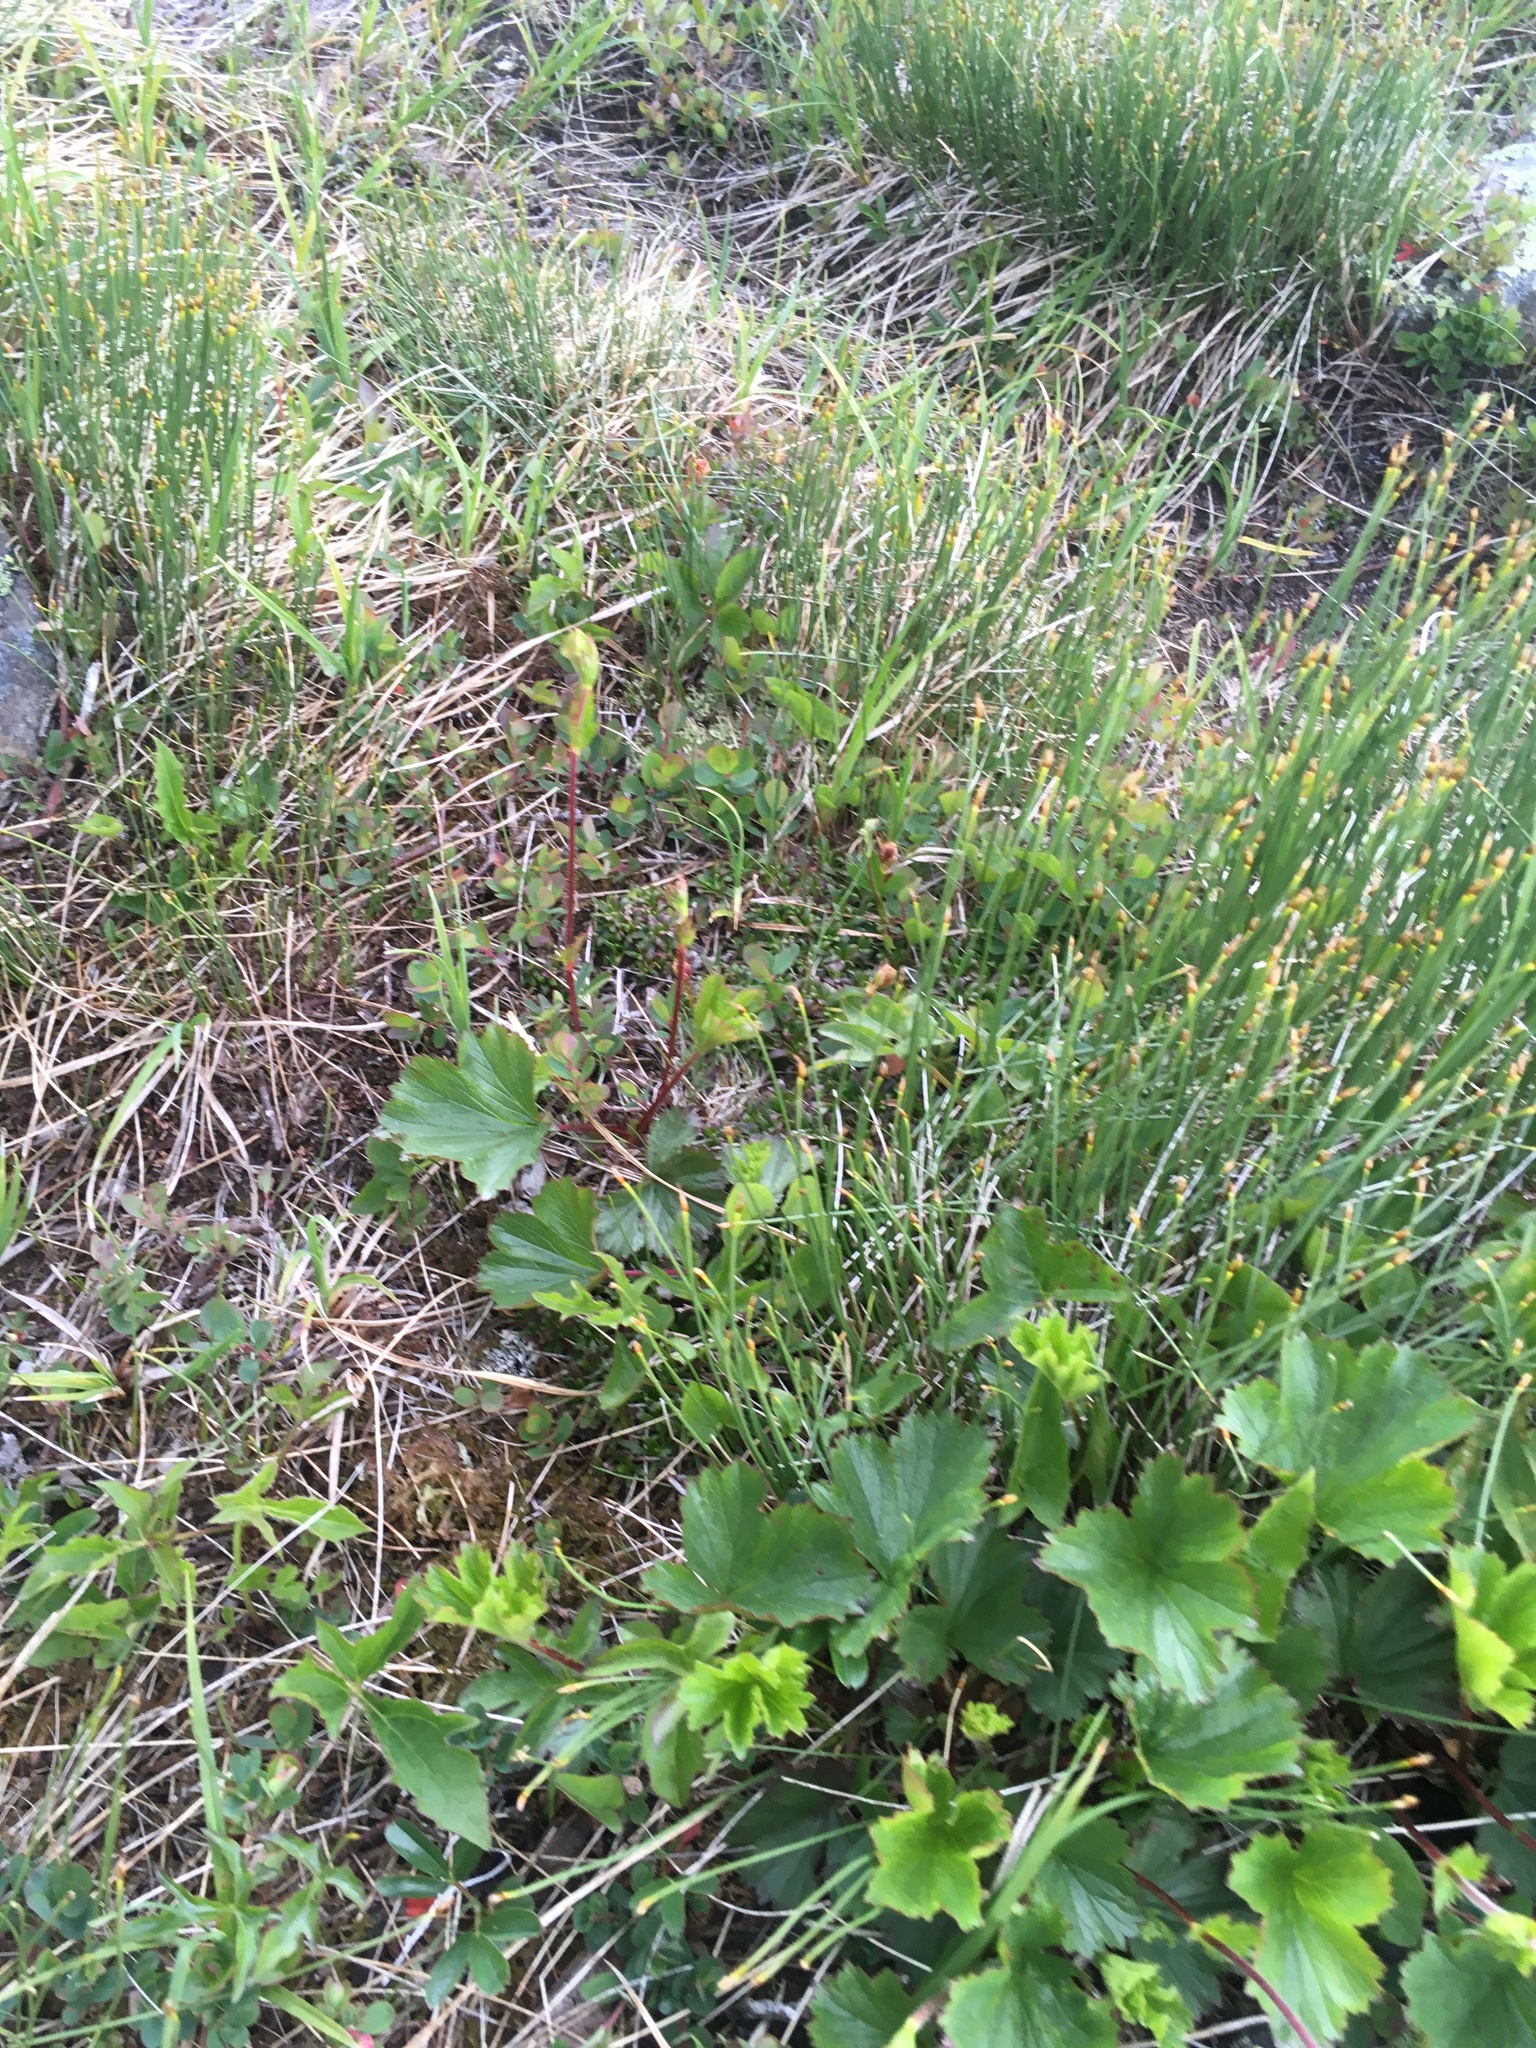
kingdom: Plantae
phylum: Tracheophyta
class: Magnoliopsida
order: Rosales
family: Rosaceae
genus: Geum
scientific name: Geum peckii
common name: Eastern mountain avens
